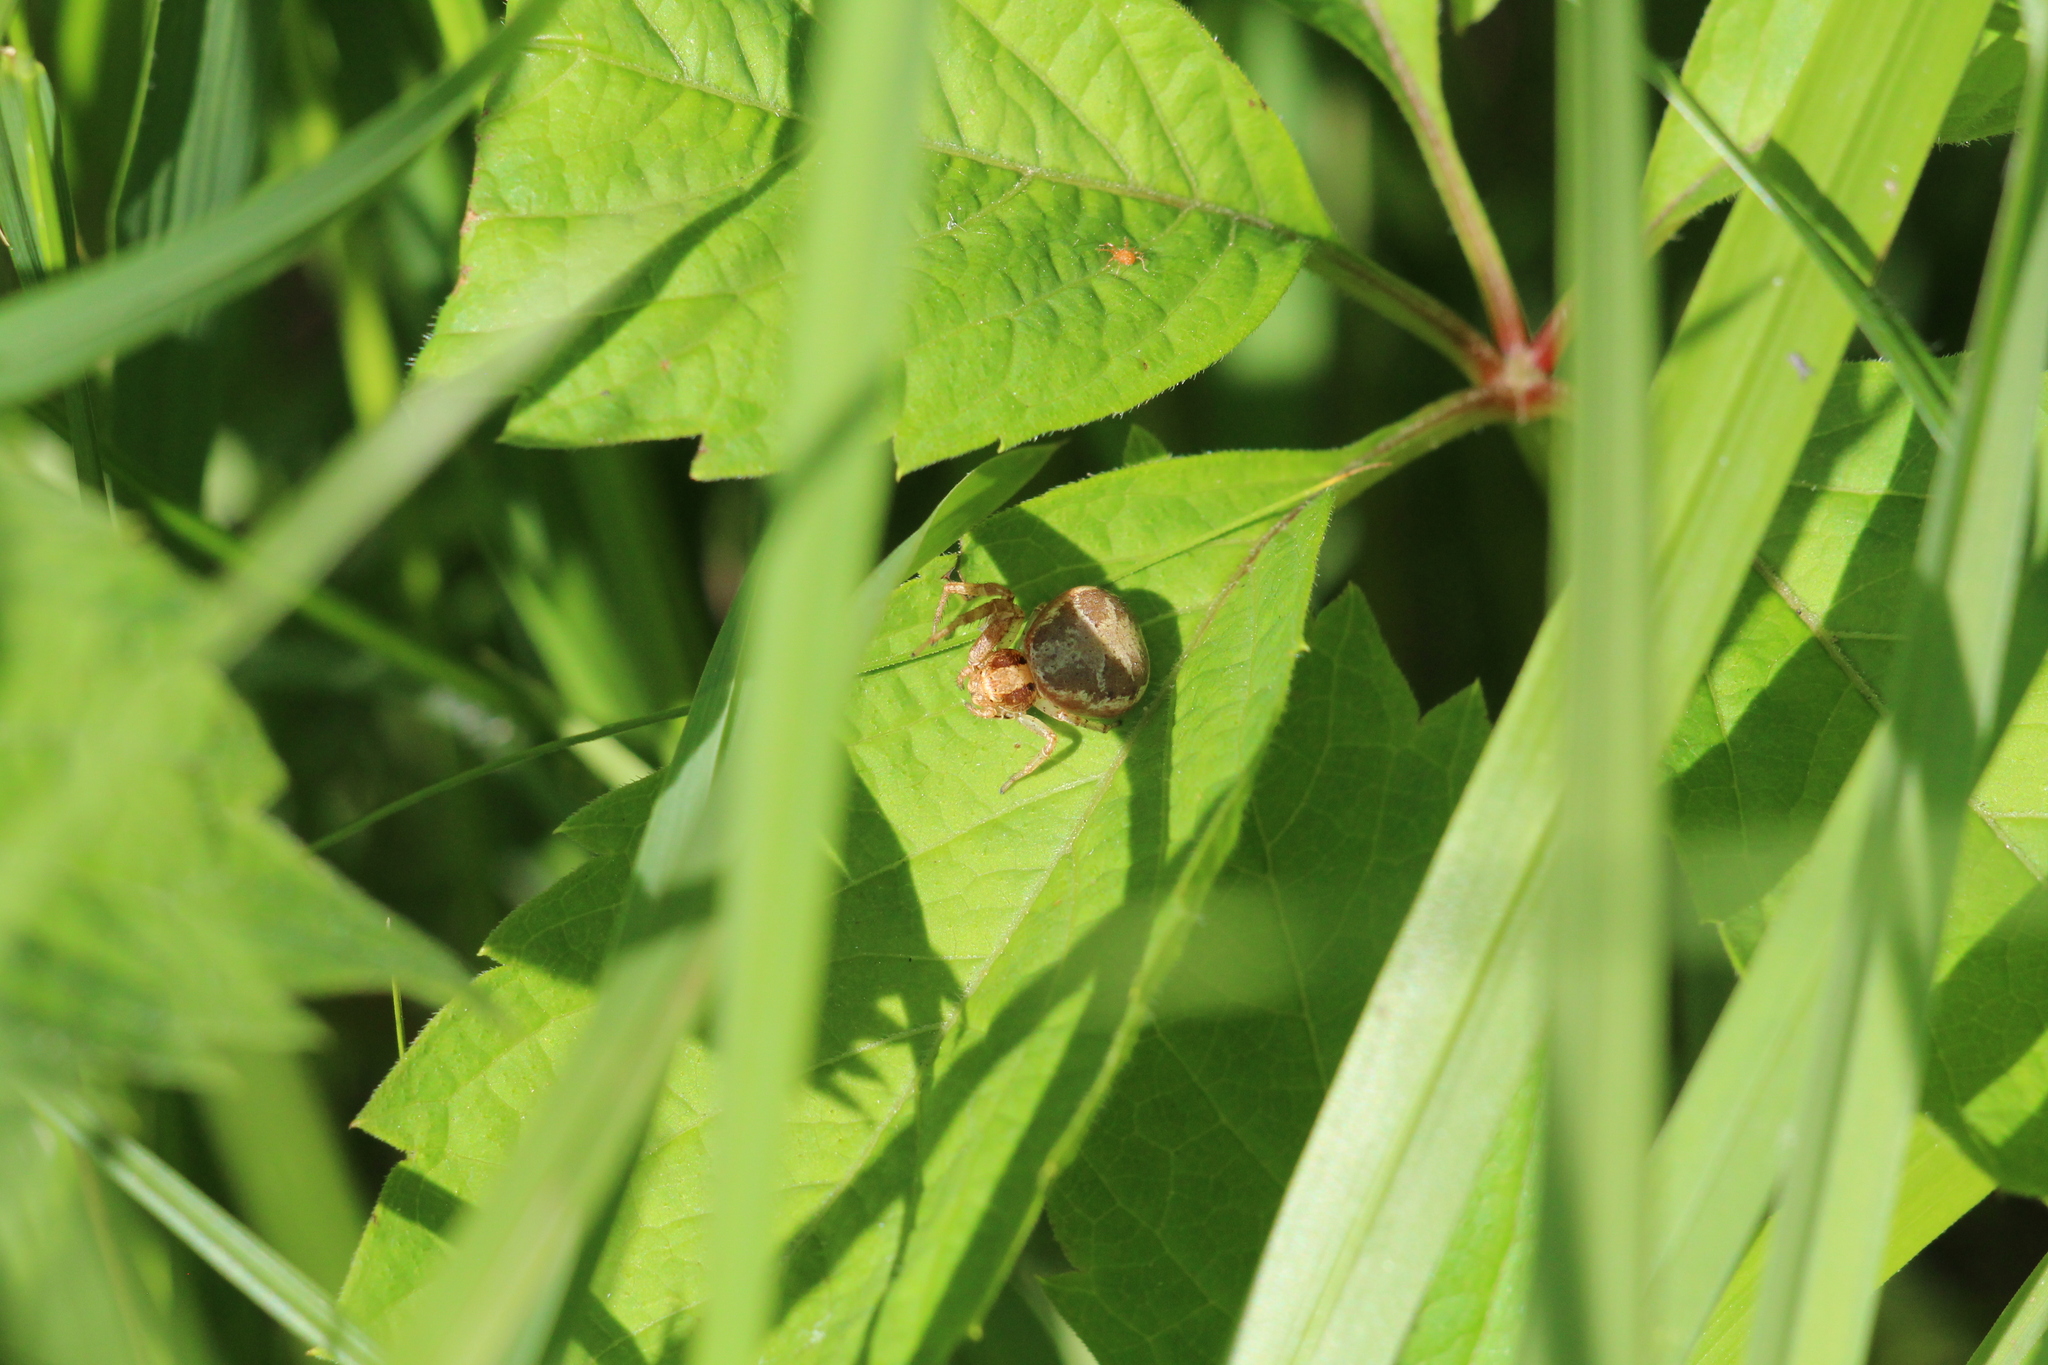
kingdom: Animalia
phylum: Arthropoda
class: Arachnida
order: Araneae
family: Thomisidae
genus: Xysticus
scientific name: Xysticus
